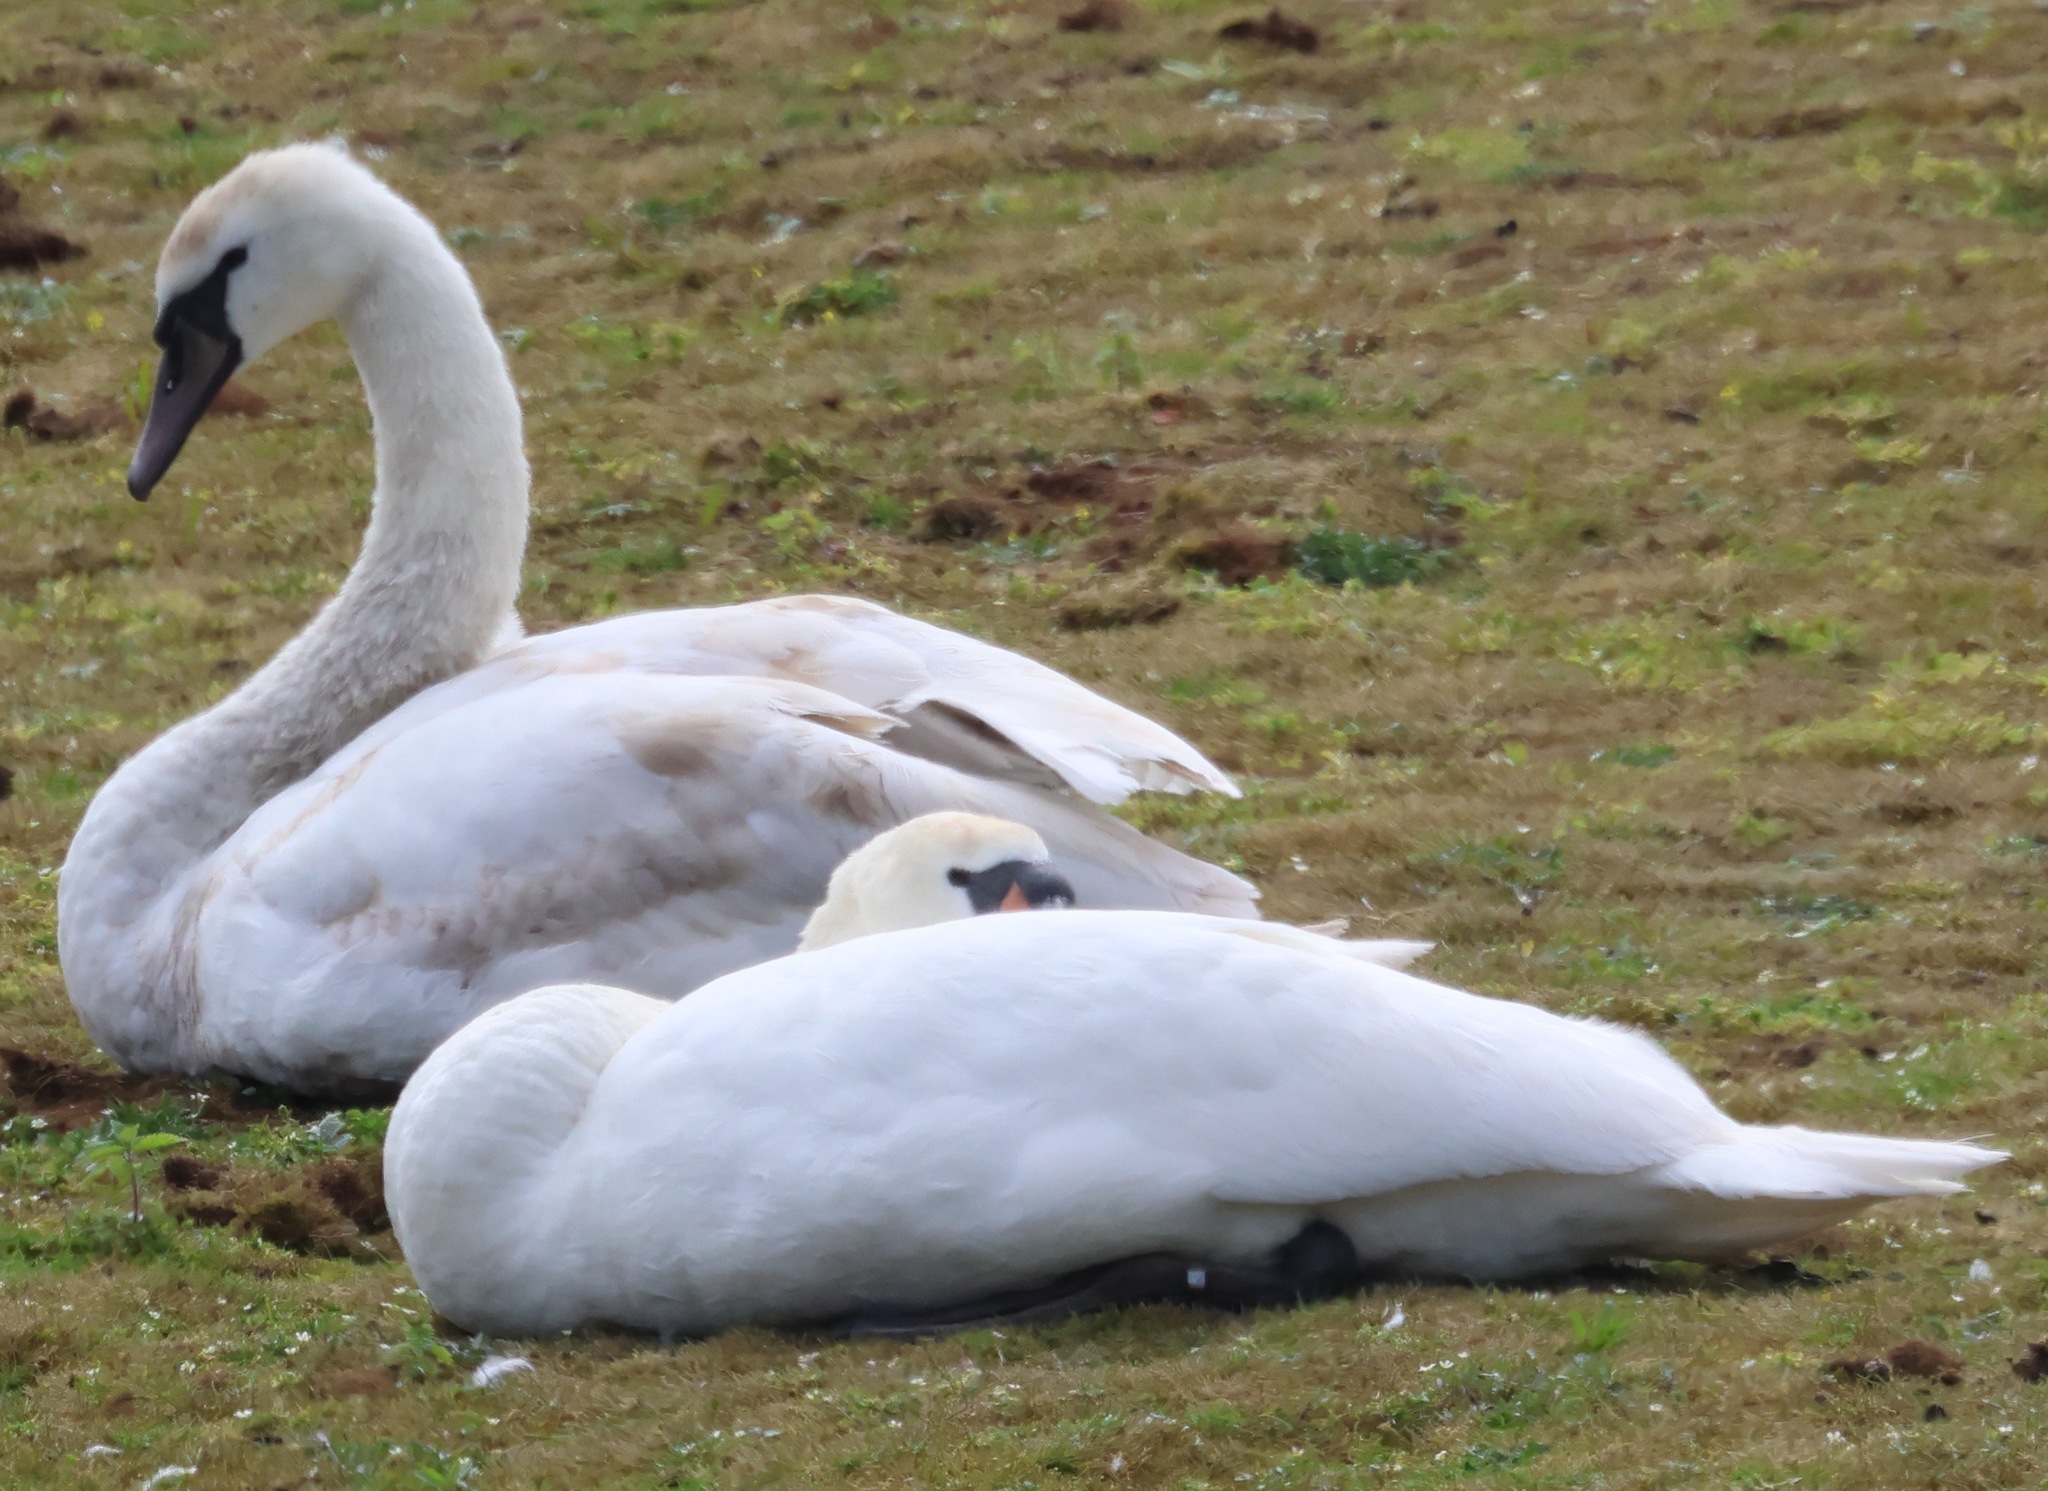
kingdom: Animalia
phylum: Chordata
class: Aves
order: Anseriformes
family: Anatidae
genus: Cygnus
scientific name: Cygnus olor
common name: Mute swan
